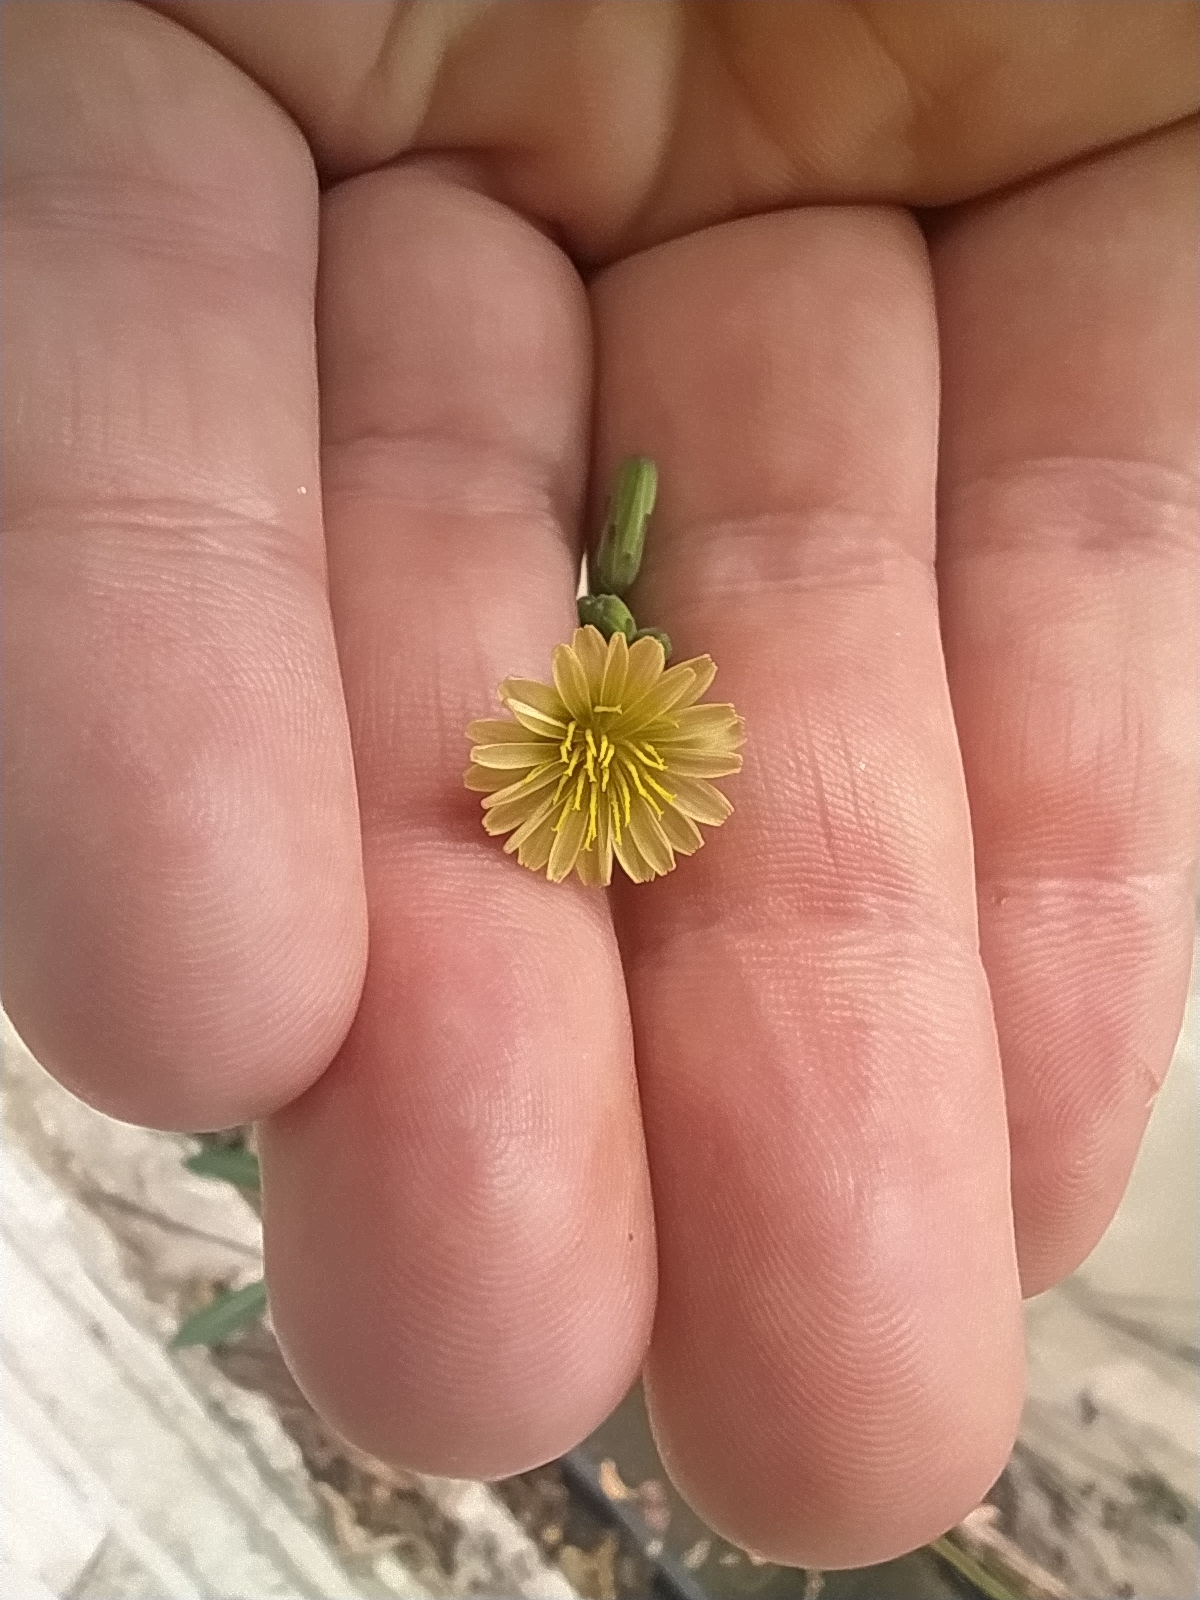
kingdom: Plantae
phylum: Tracheophyta
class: Magnoliopsida
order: Asterales
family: Asteraceae
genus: Lactuca
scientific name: Lactuca serriola
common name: Prickly lettuce
